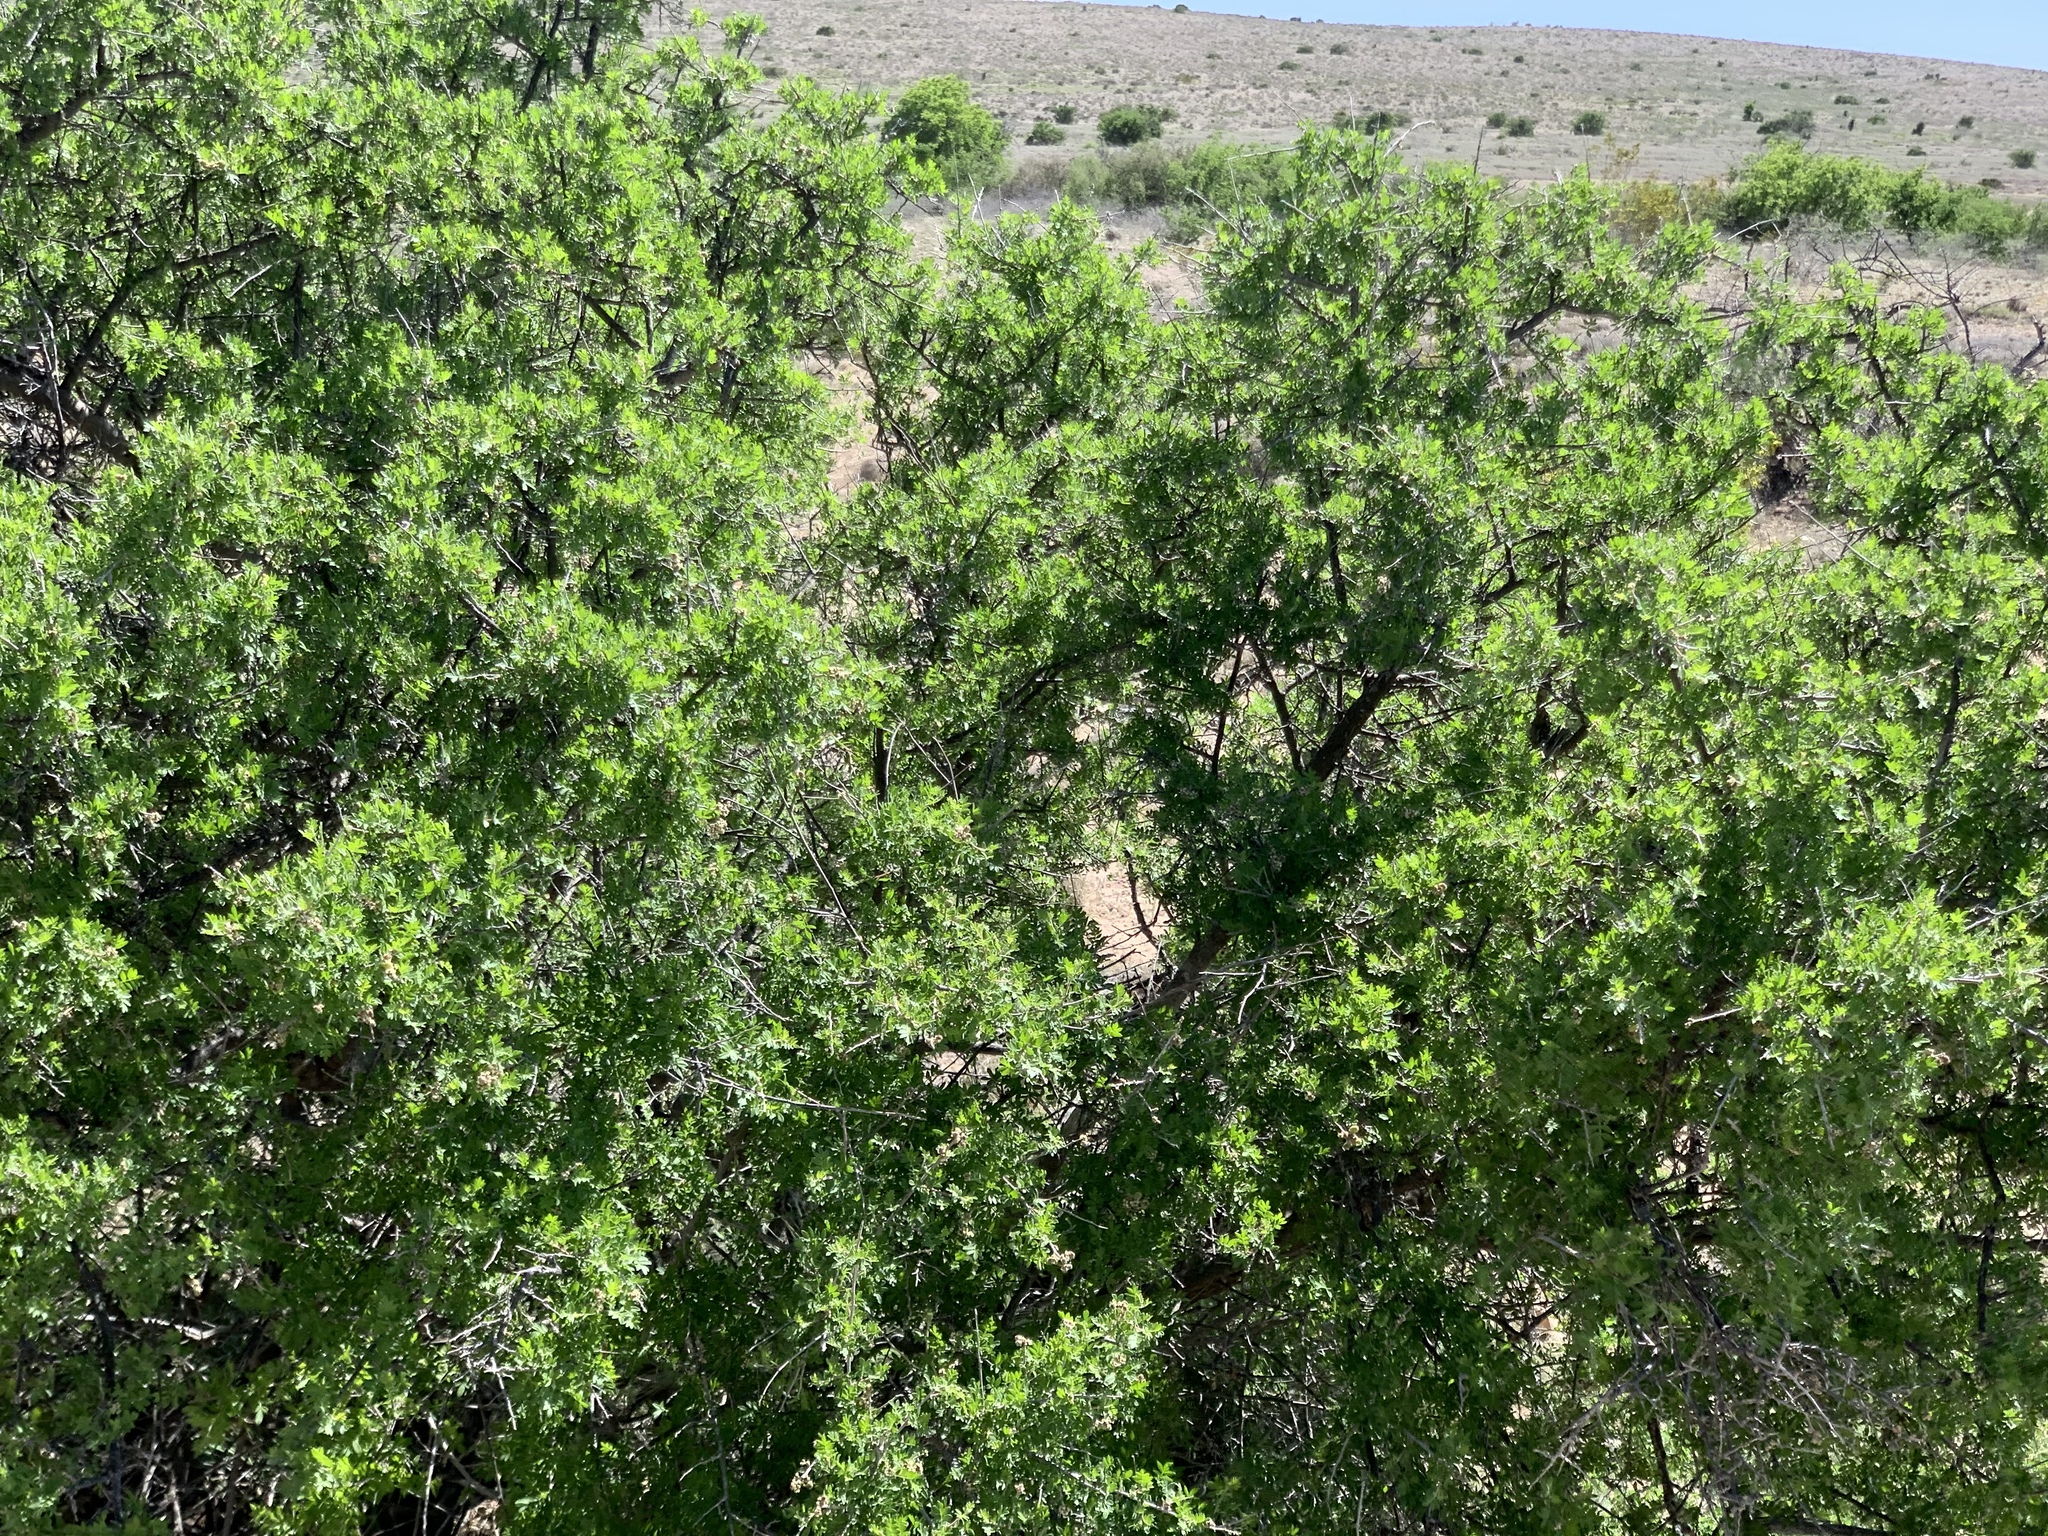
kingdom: Plantae
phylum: Tracheophyta
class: Magnoliopsida
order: Sapindales
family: Anacardiaceae
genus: Rhus
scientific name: Rhus microphylla
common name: Desert sumac
